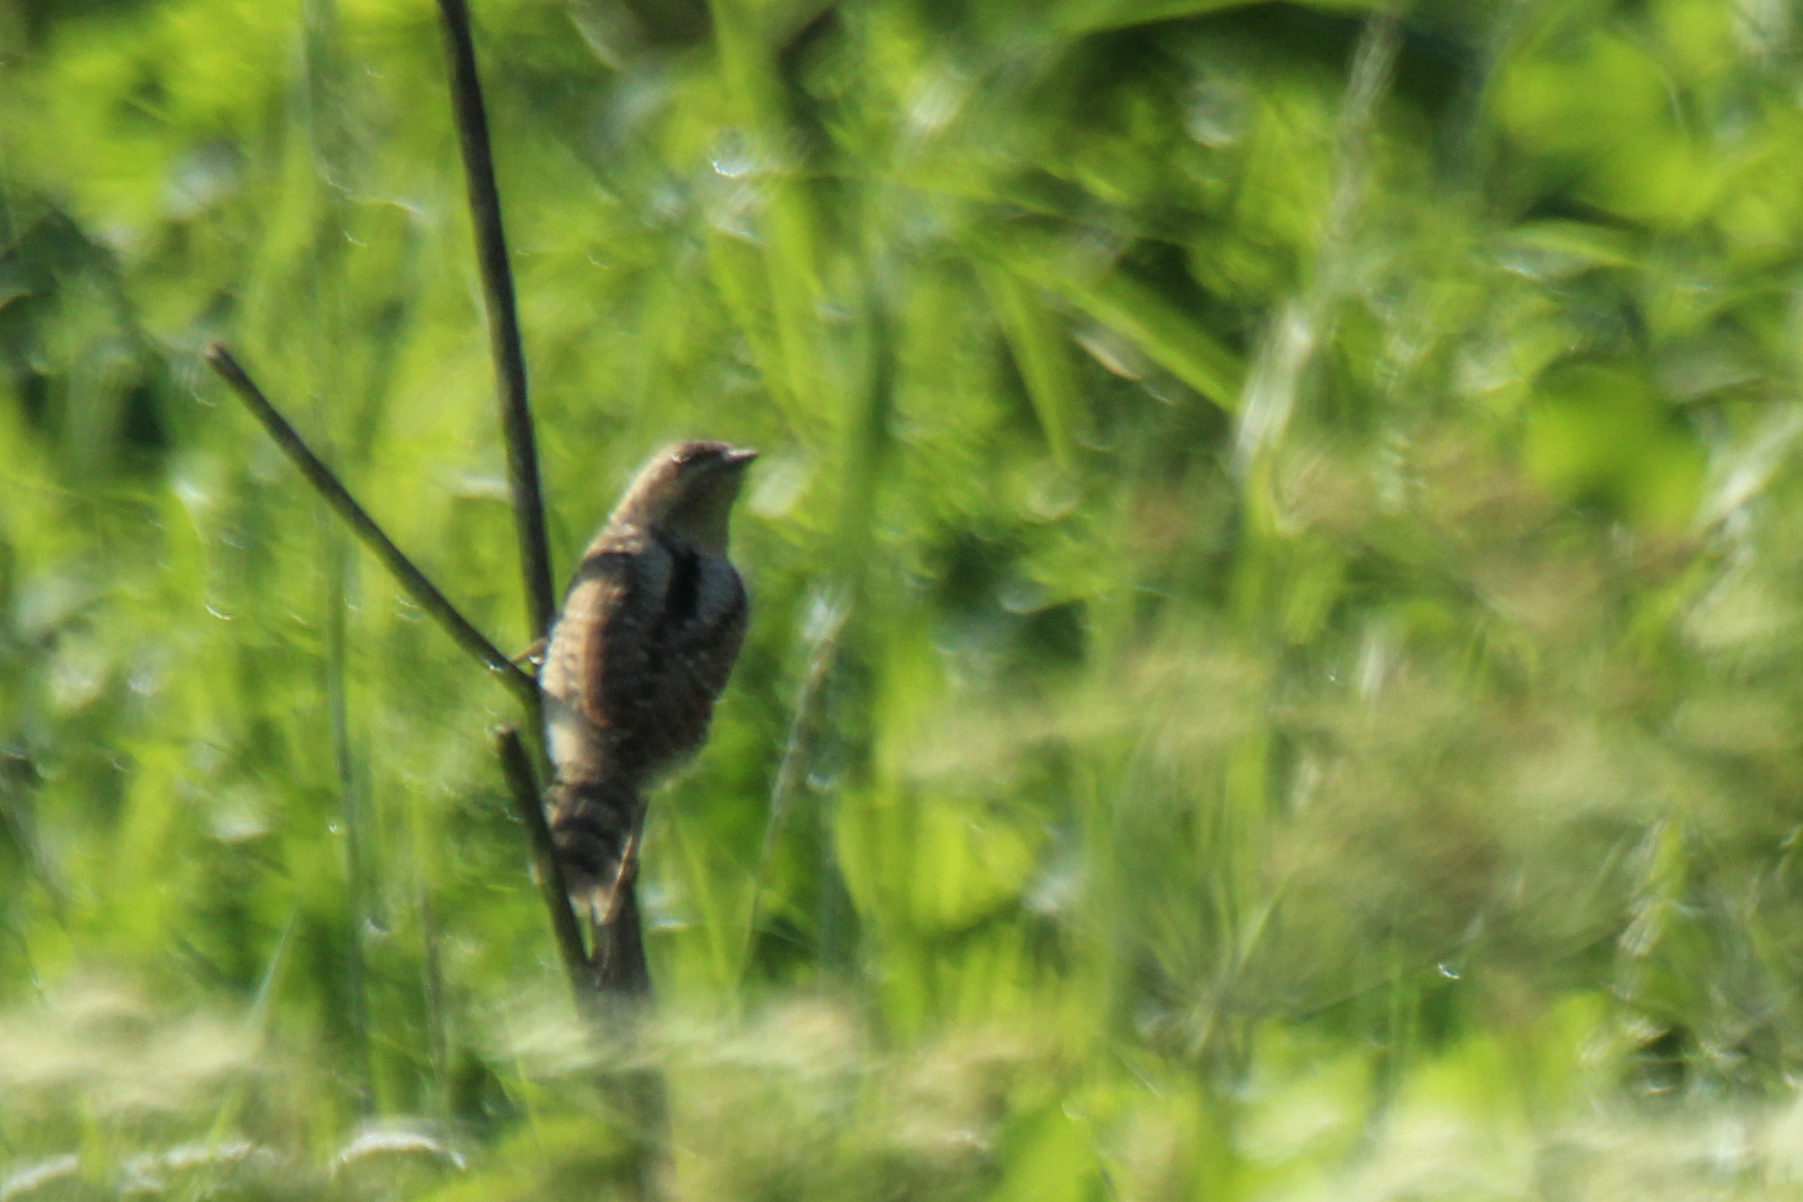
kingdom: Animalia
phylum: Chordata
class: Aves
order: Piciformes
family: Picidae
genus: Jynx
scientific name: Jynx torquilla
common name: Eurasian wryneck
